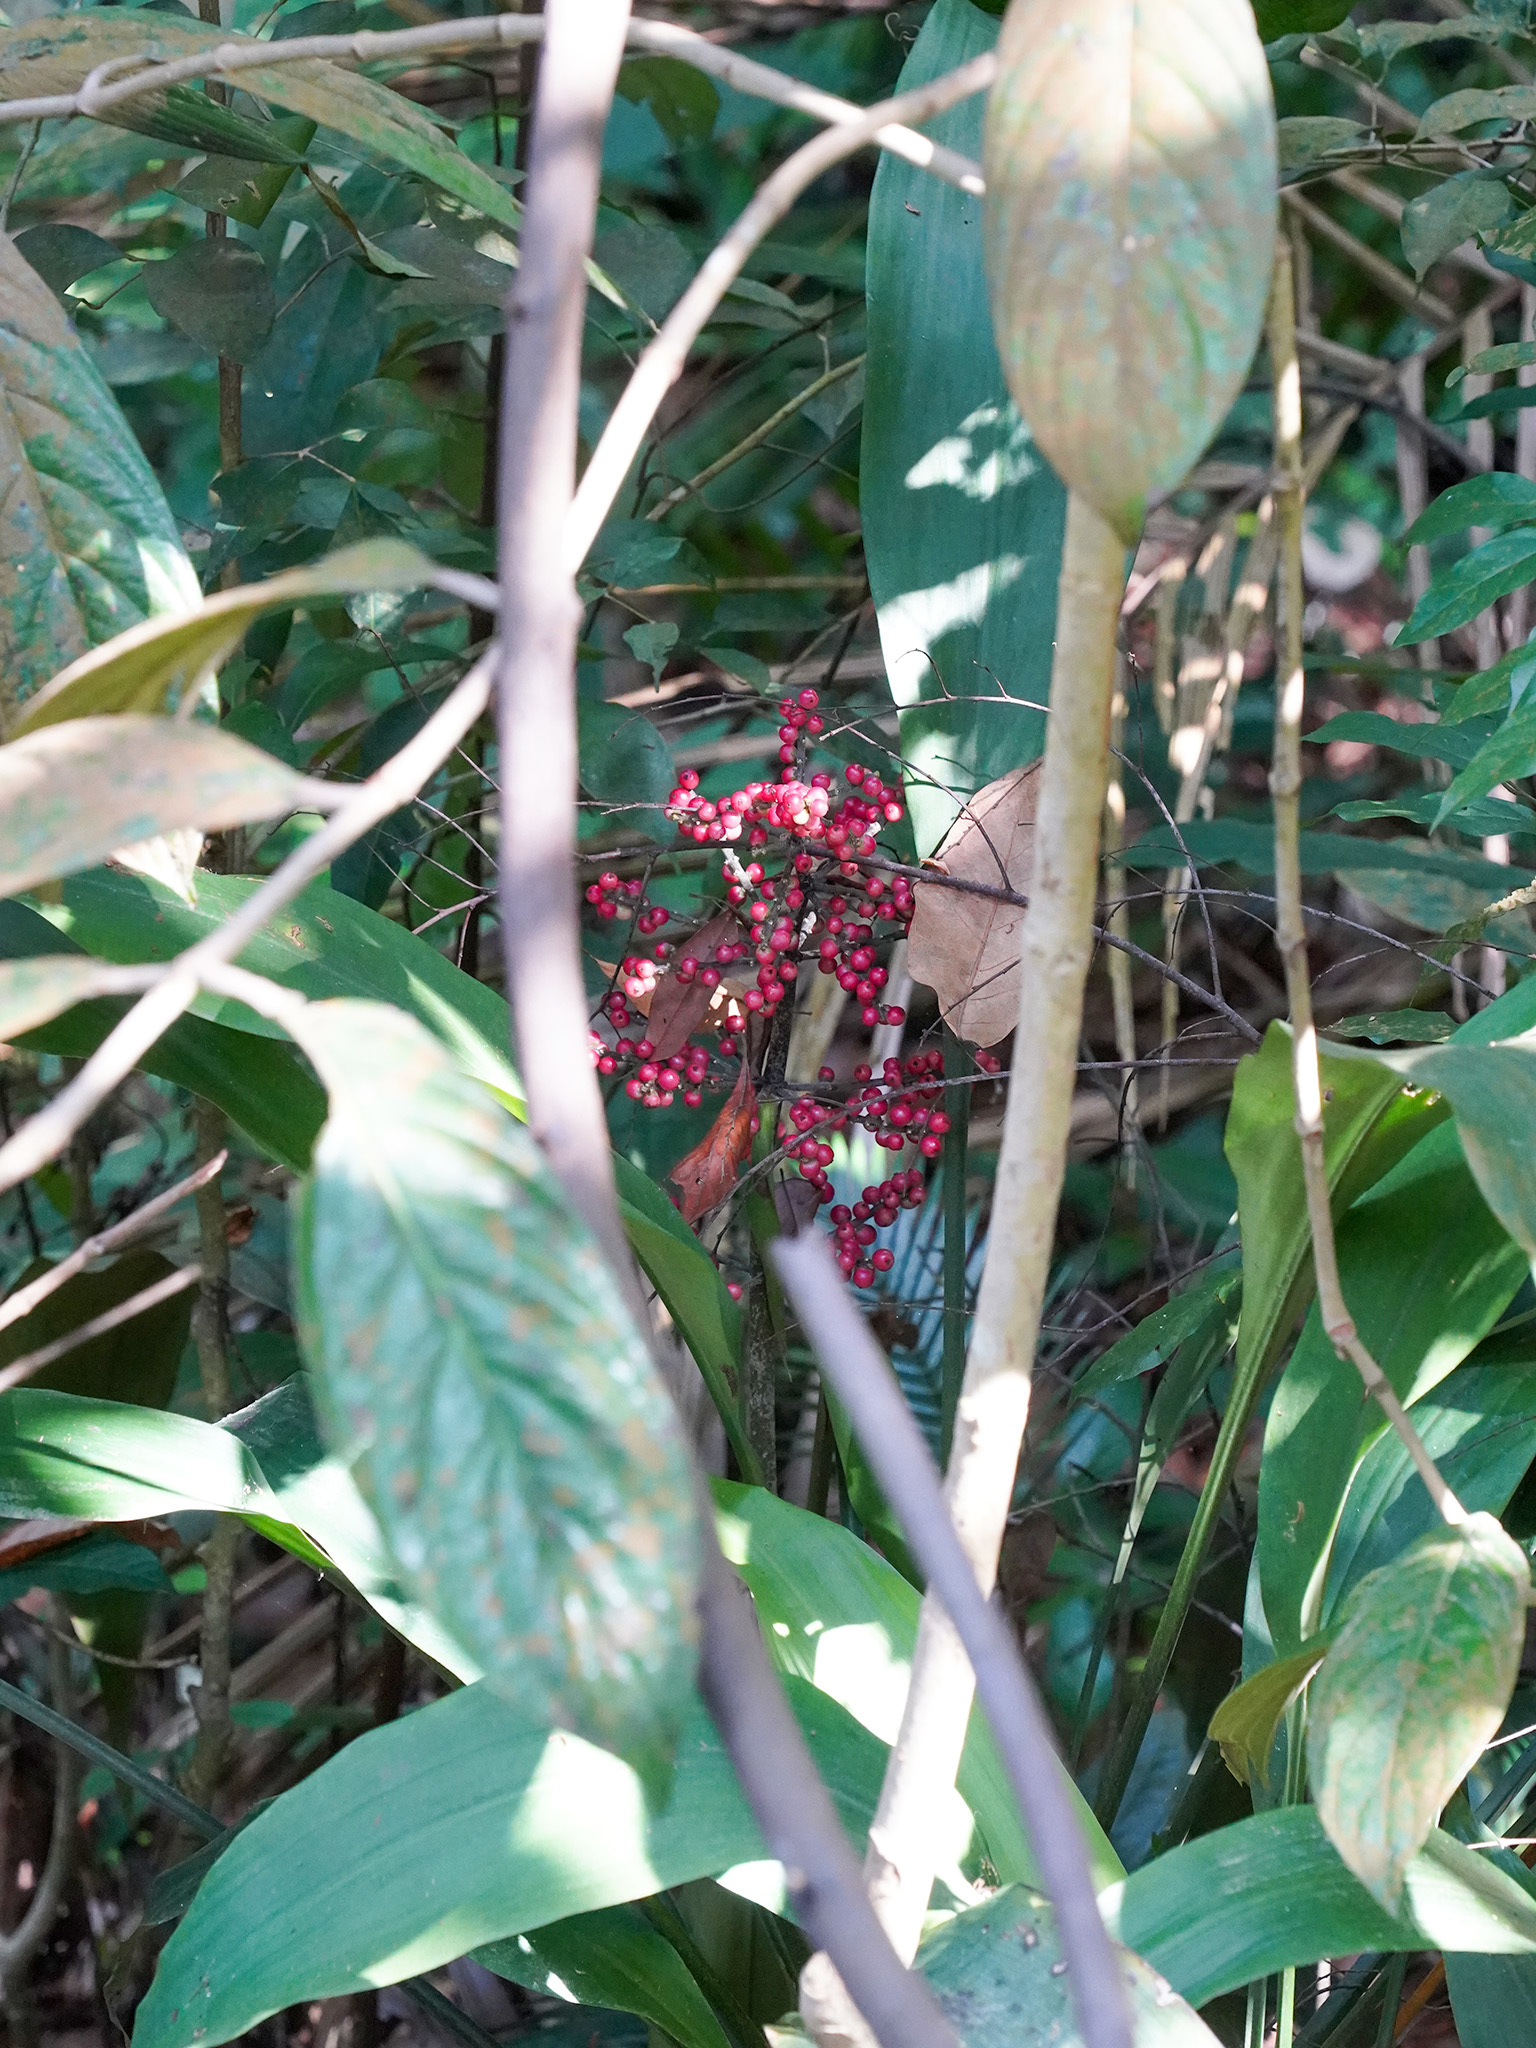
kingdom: Plantae
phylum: Tracheophyta
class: Liliopsida
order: Commelinales
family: Hanguanaceae
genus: Hanguana
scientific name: Hanguana rubinea
